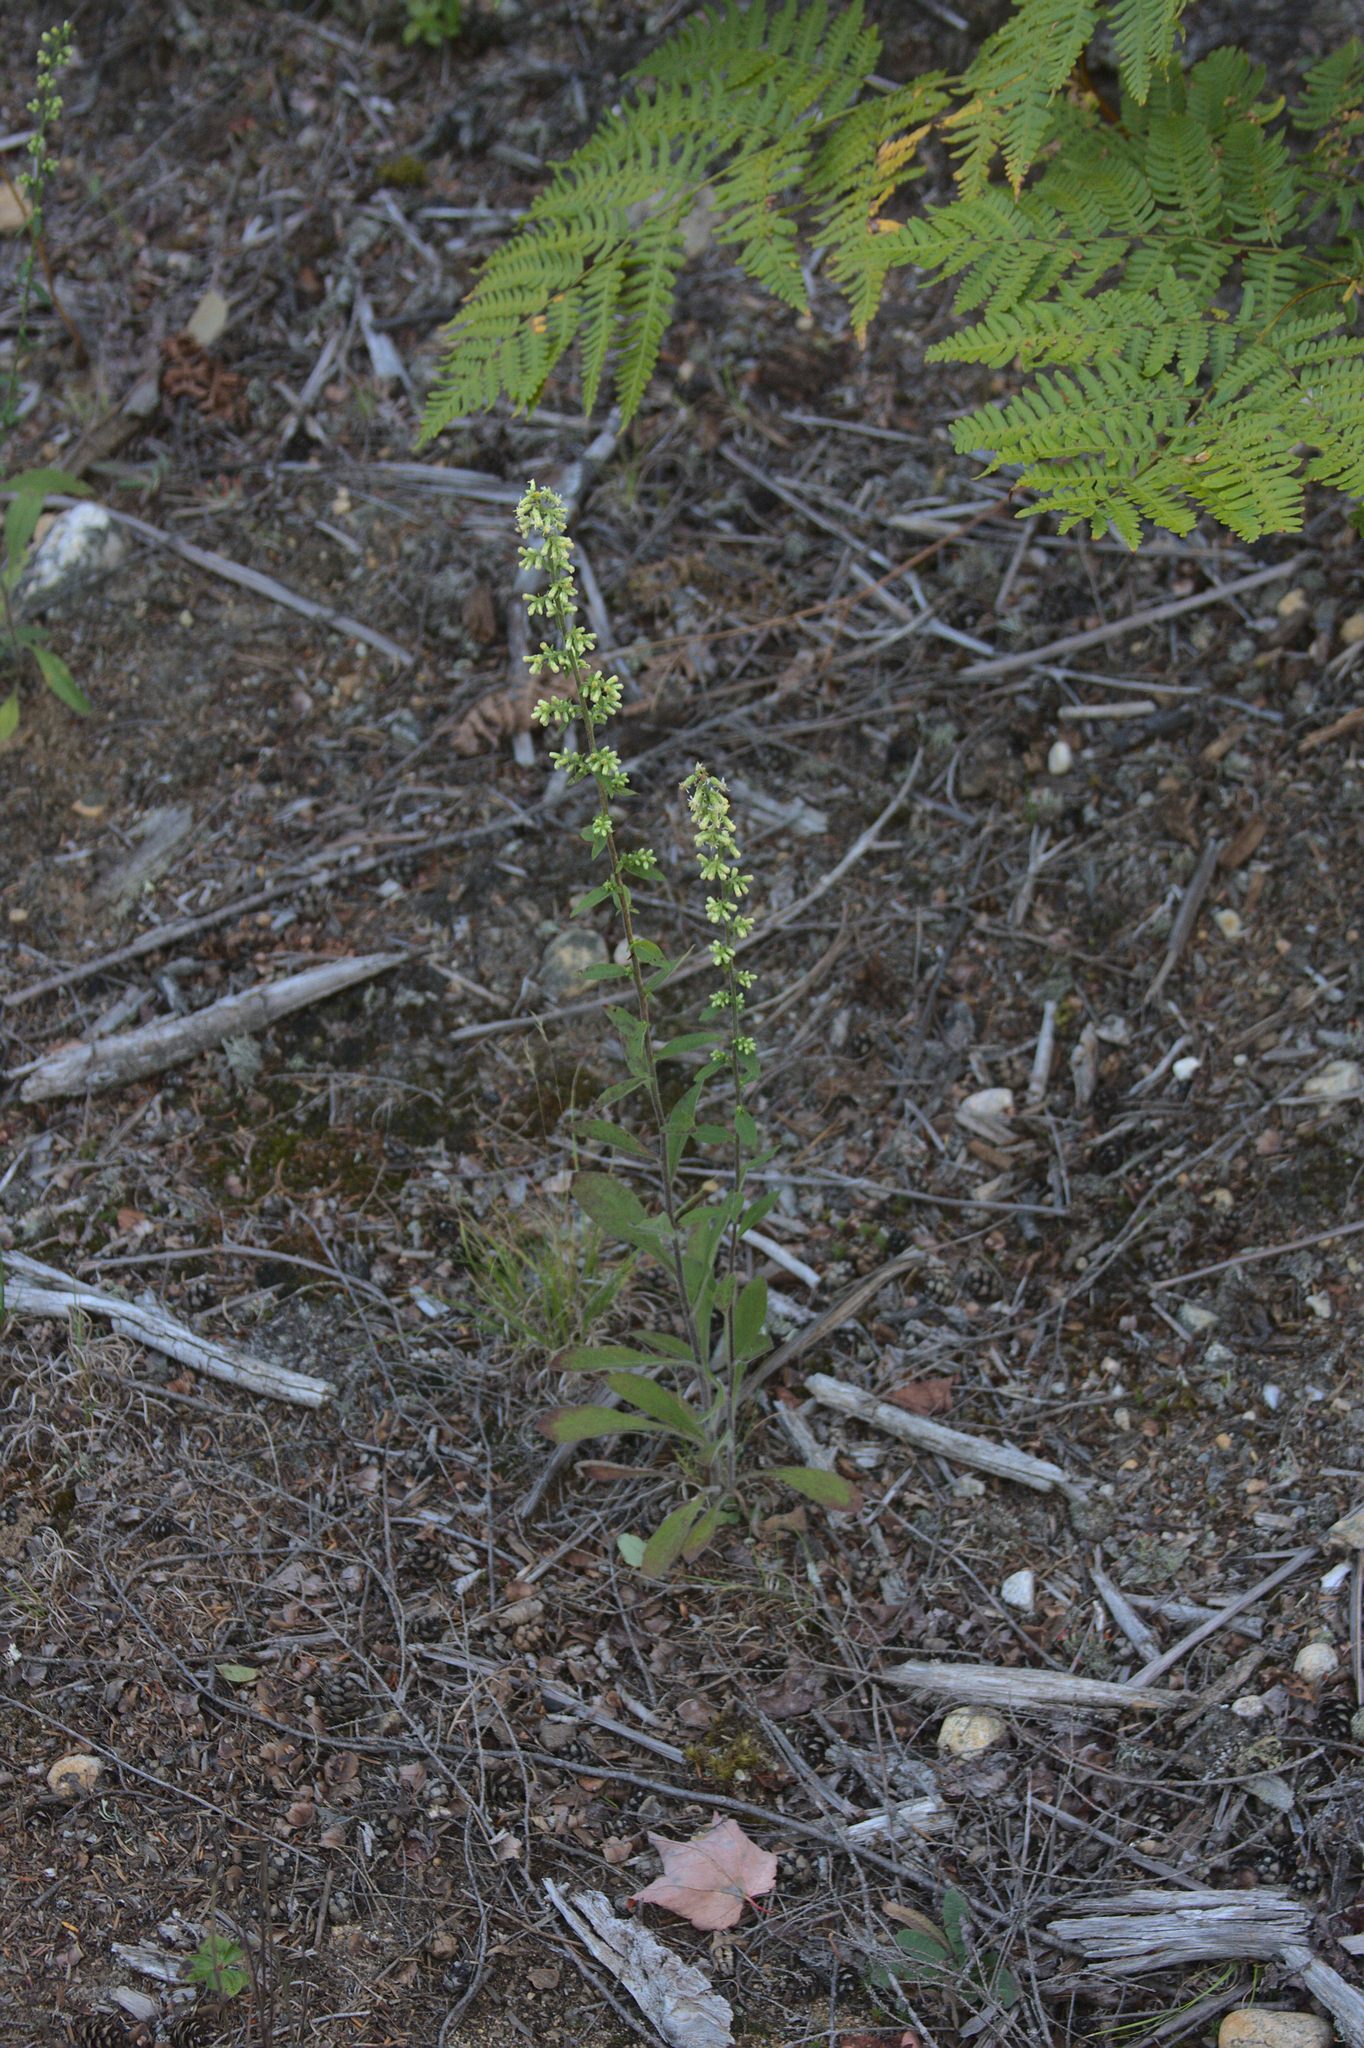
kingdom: Plantae
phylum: Tracheophyta
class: Magnoliopsida
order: Asterales
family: Asteraceae
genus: Solidago
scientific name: Solidago bicolor
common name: Silverrod
